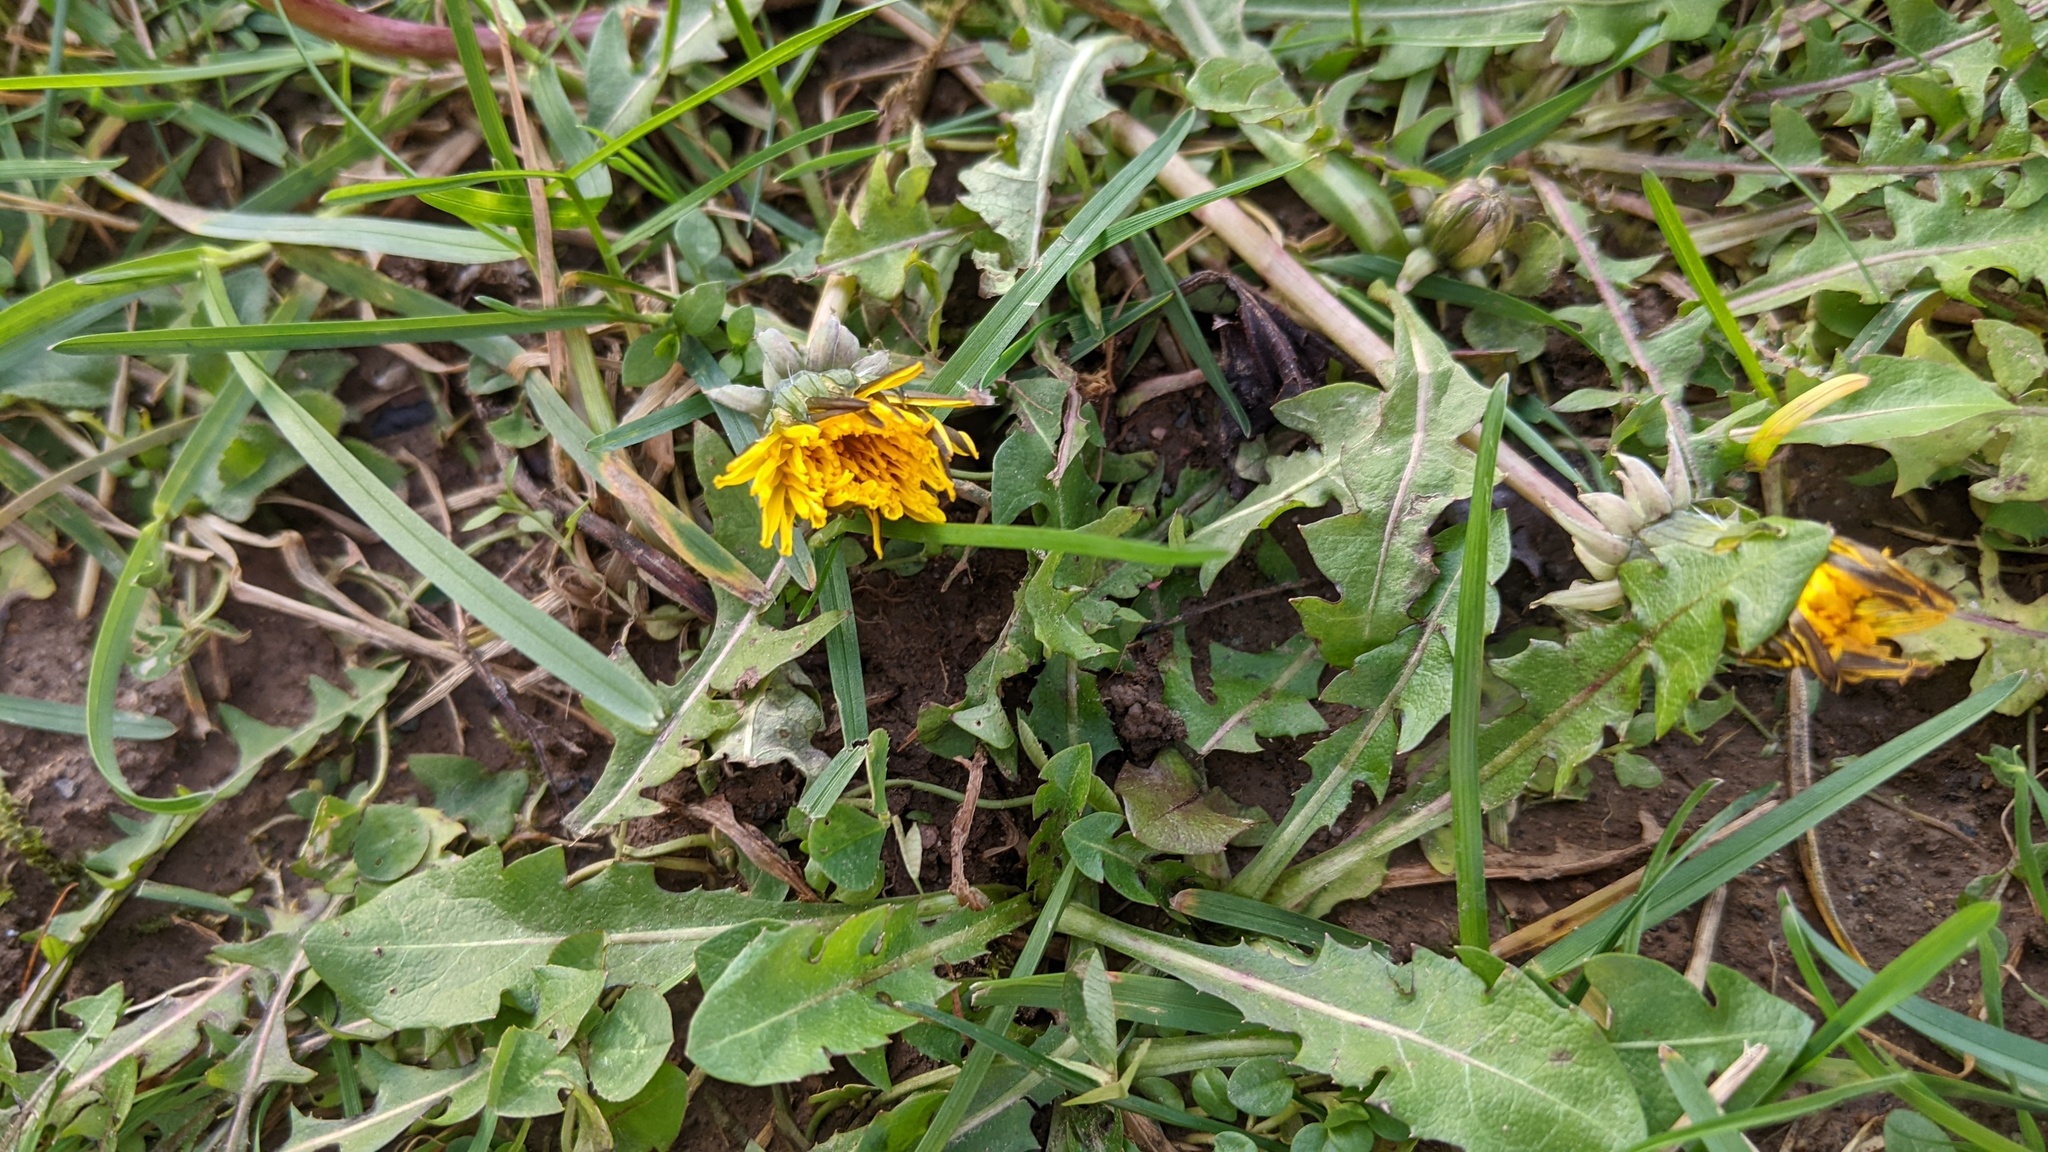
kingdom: Plantae
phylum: Tracheophyta
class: Magnoliopsida
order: Asterales
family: Asteraceae
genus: Taraxacum
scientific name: Taraxacum officinale
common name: Common dandelion
